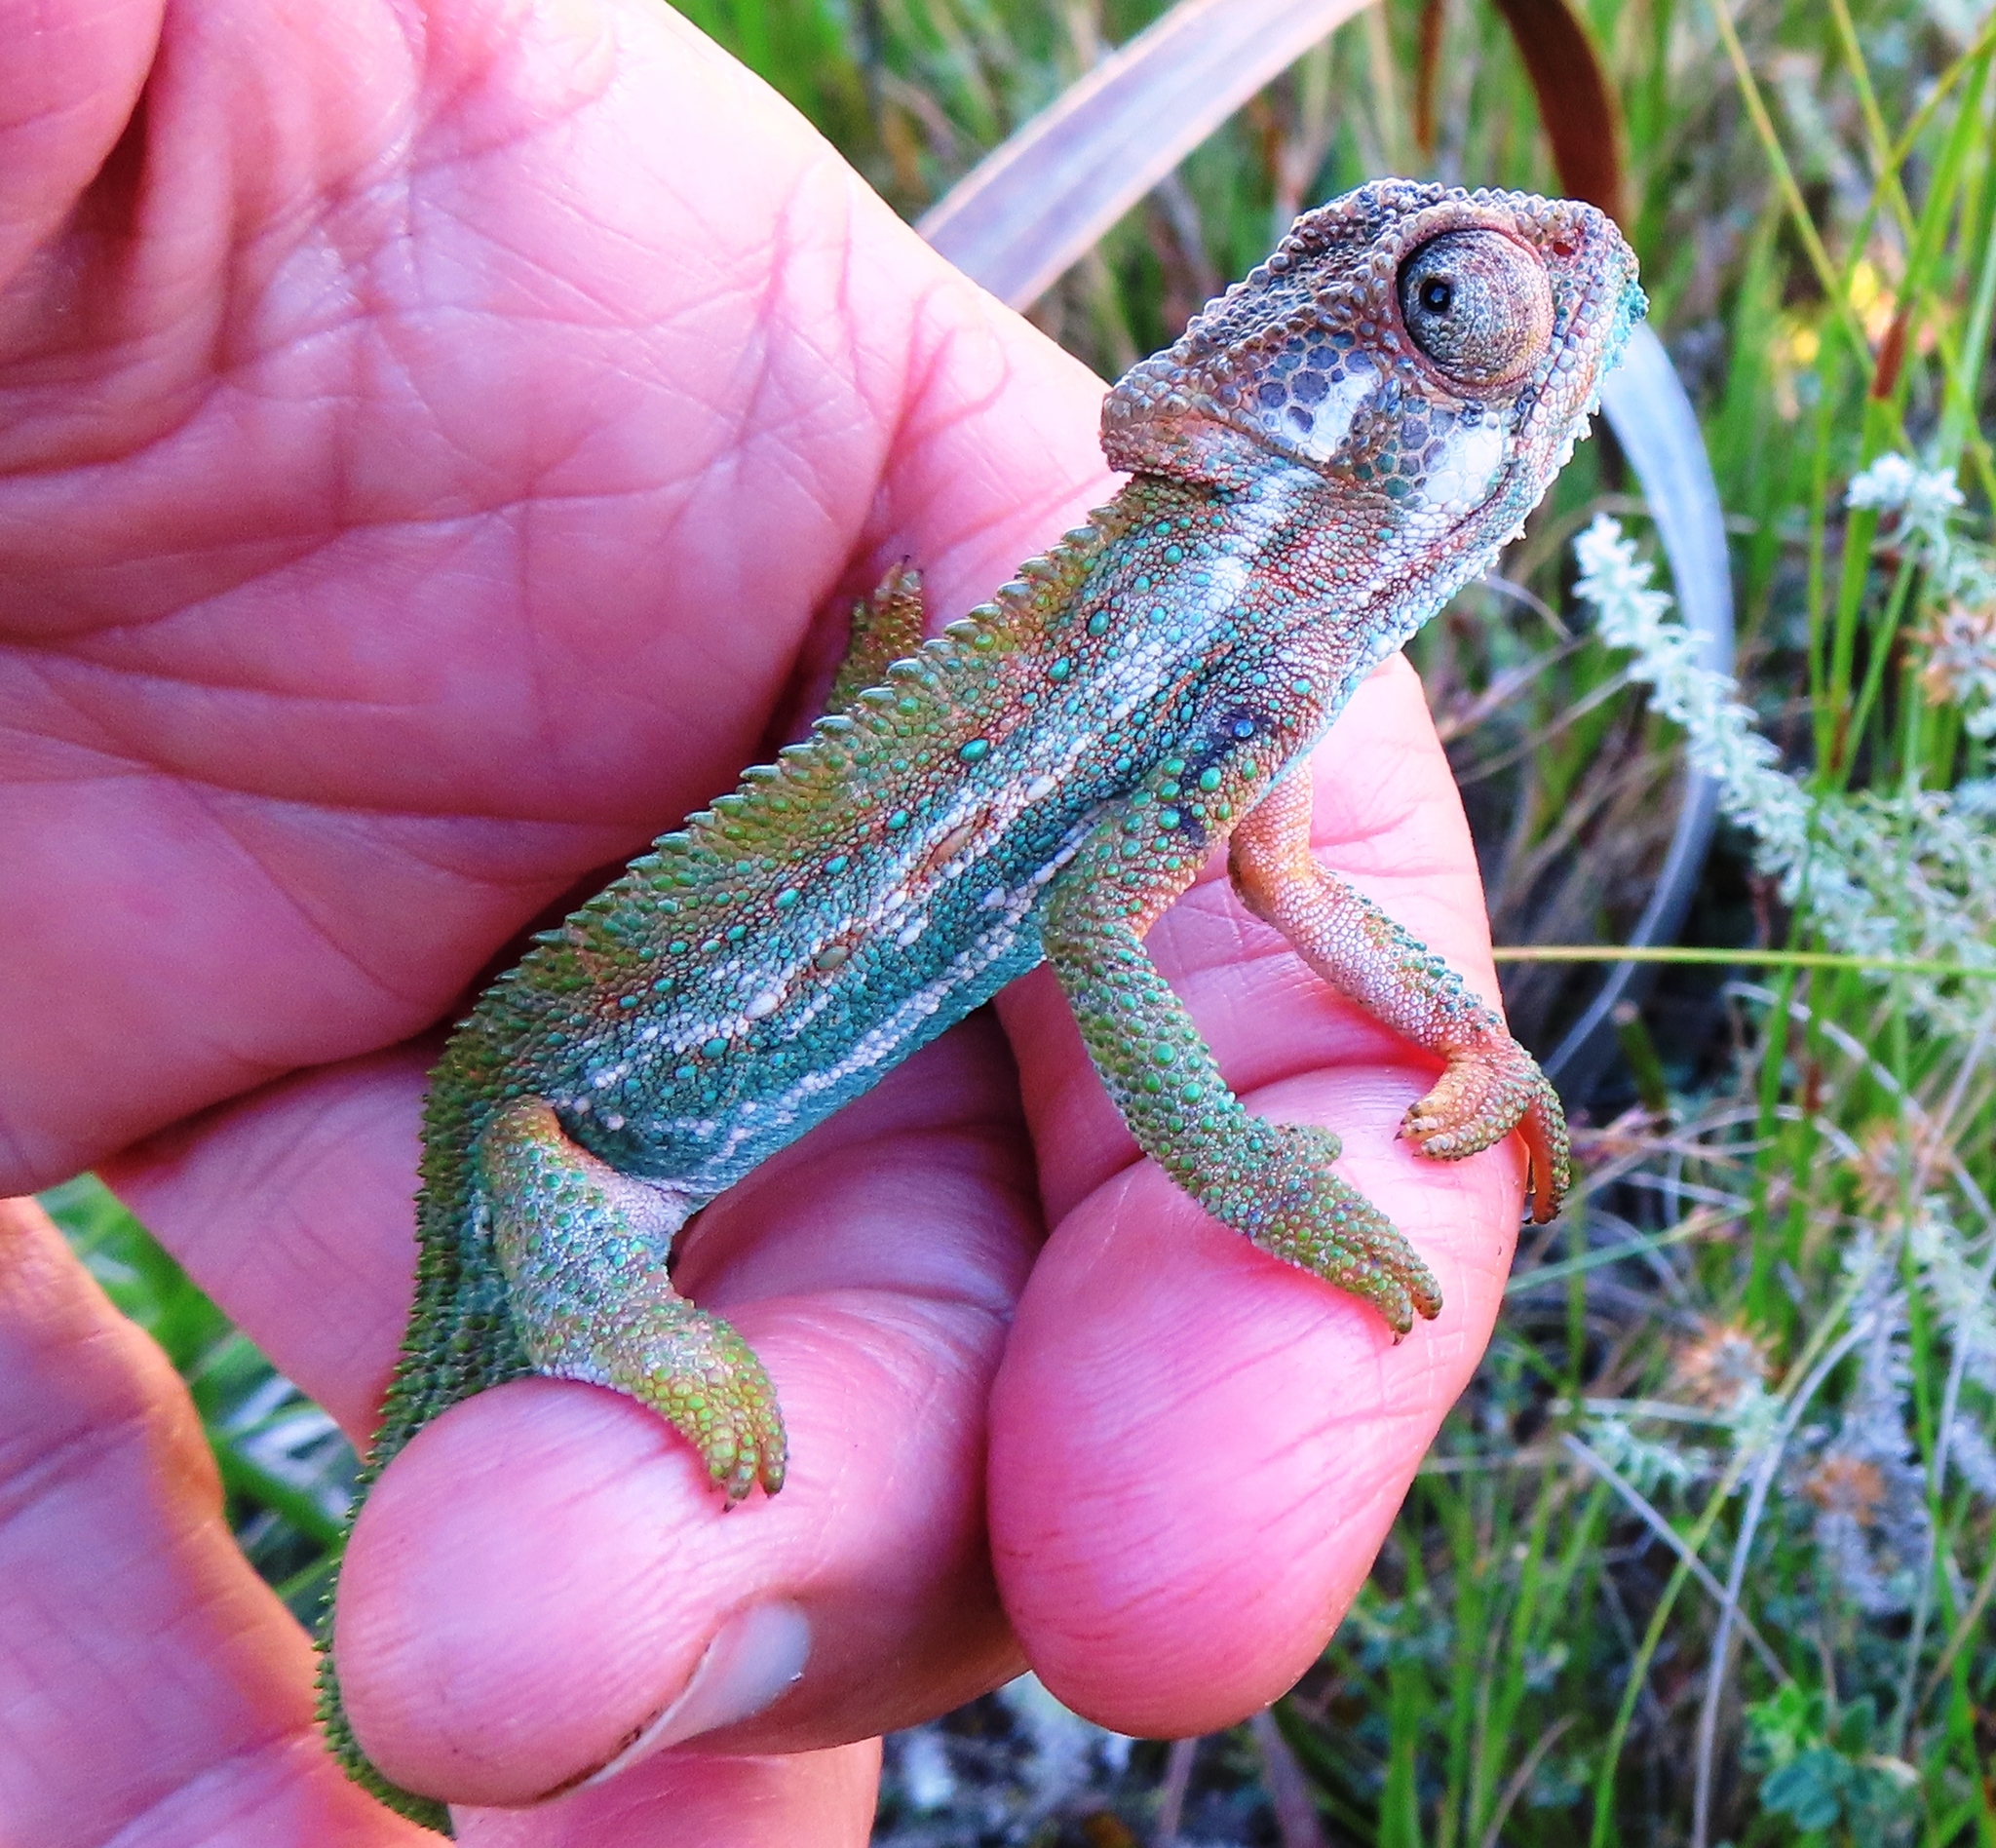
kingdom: Animalia
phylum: Chordata
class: Squamata
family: Chamaeleonidae
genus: Bradypodion
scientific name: Bradypodion pumilum
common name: Cape dwarf chameleon
